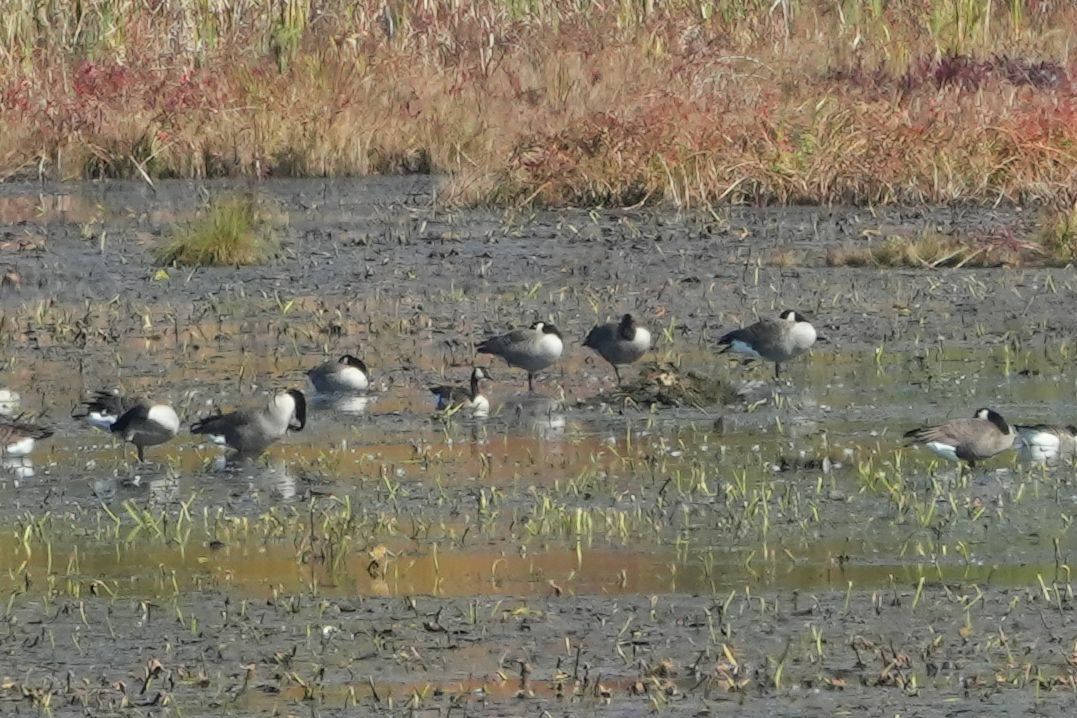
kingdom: Animalia
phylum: Chordata
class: Aves
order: Anseriformes
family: Anatidae
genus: Branta
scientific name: Branta canadensis
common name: Canada goose
